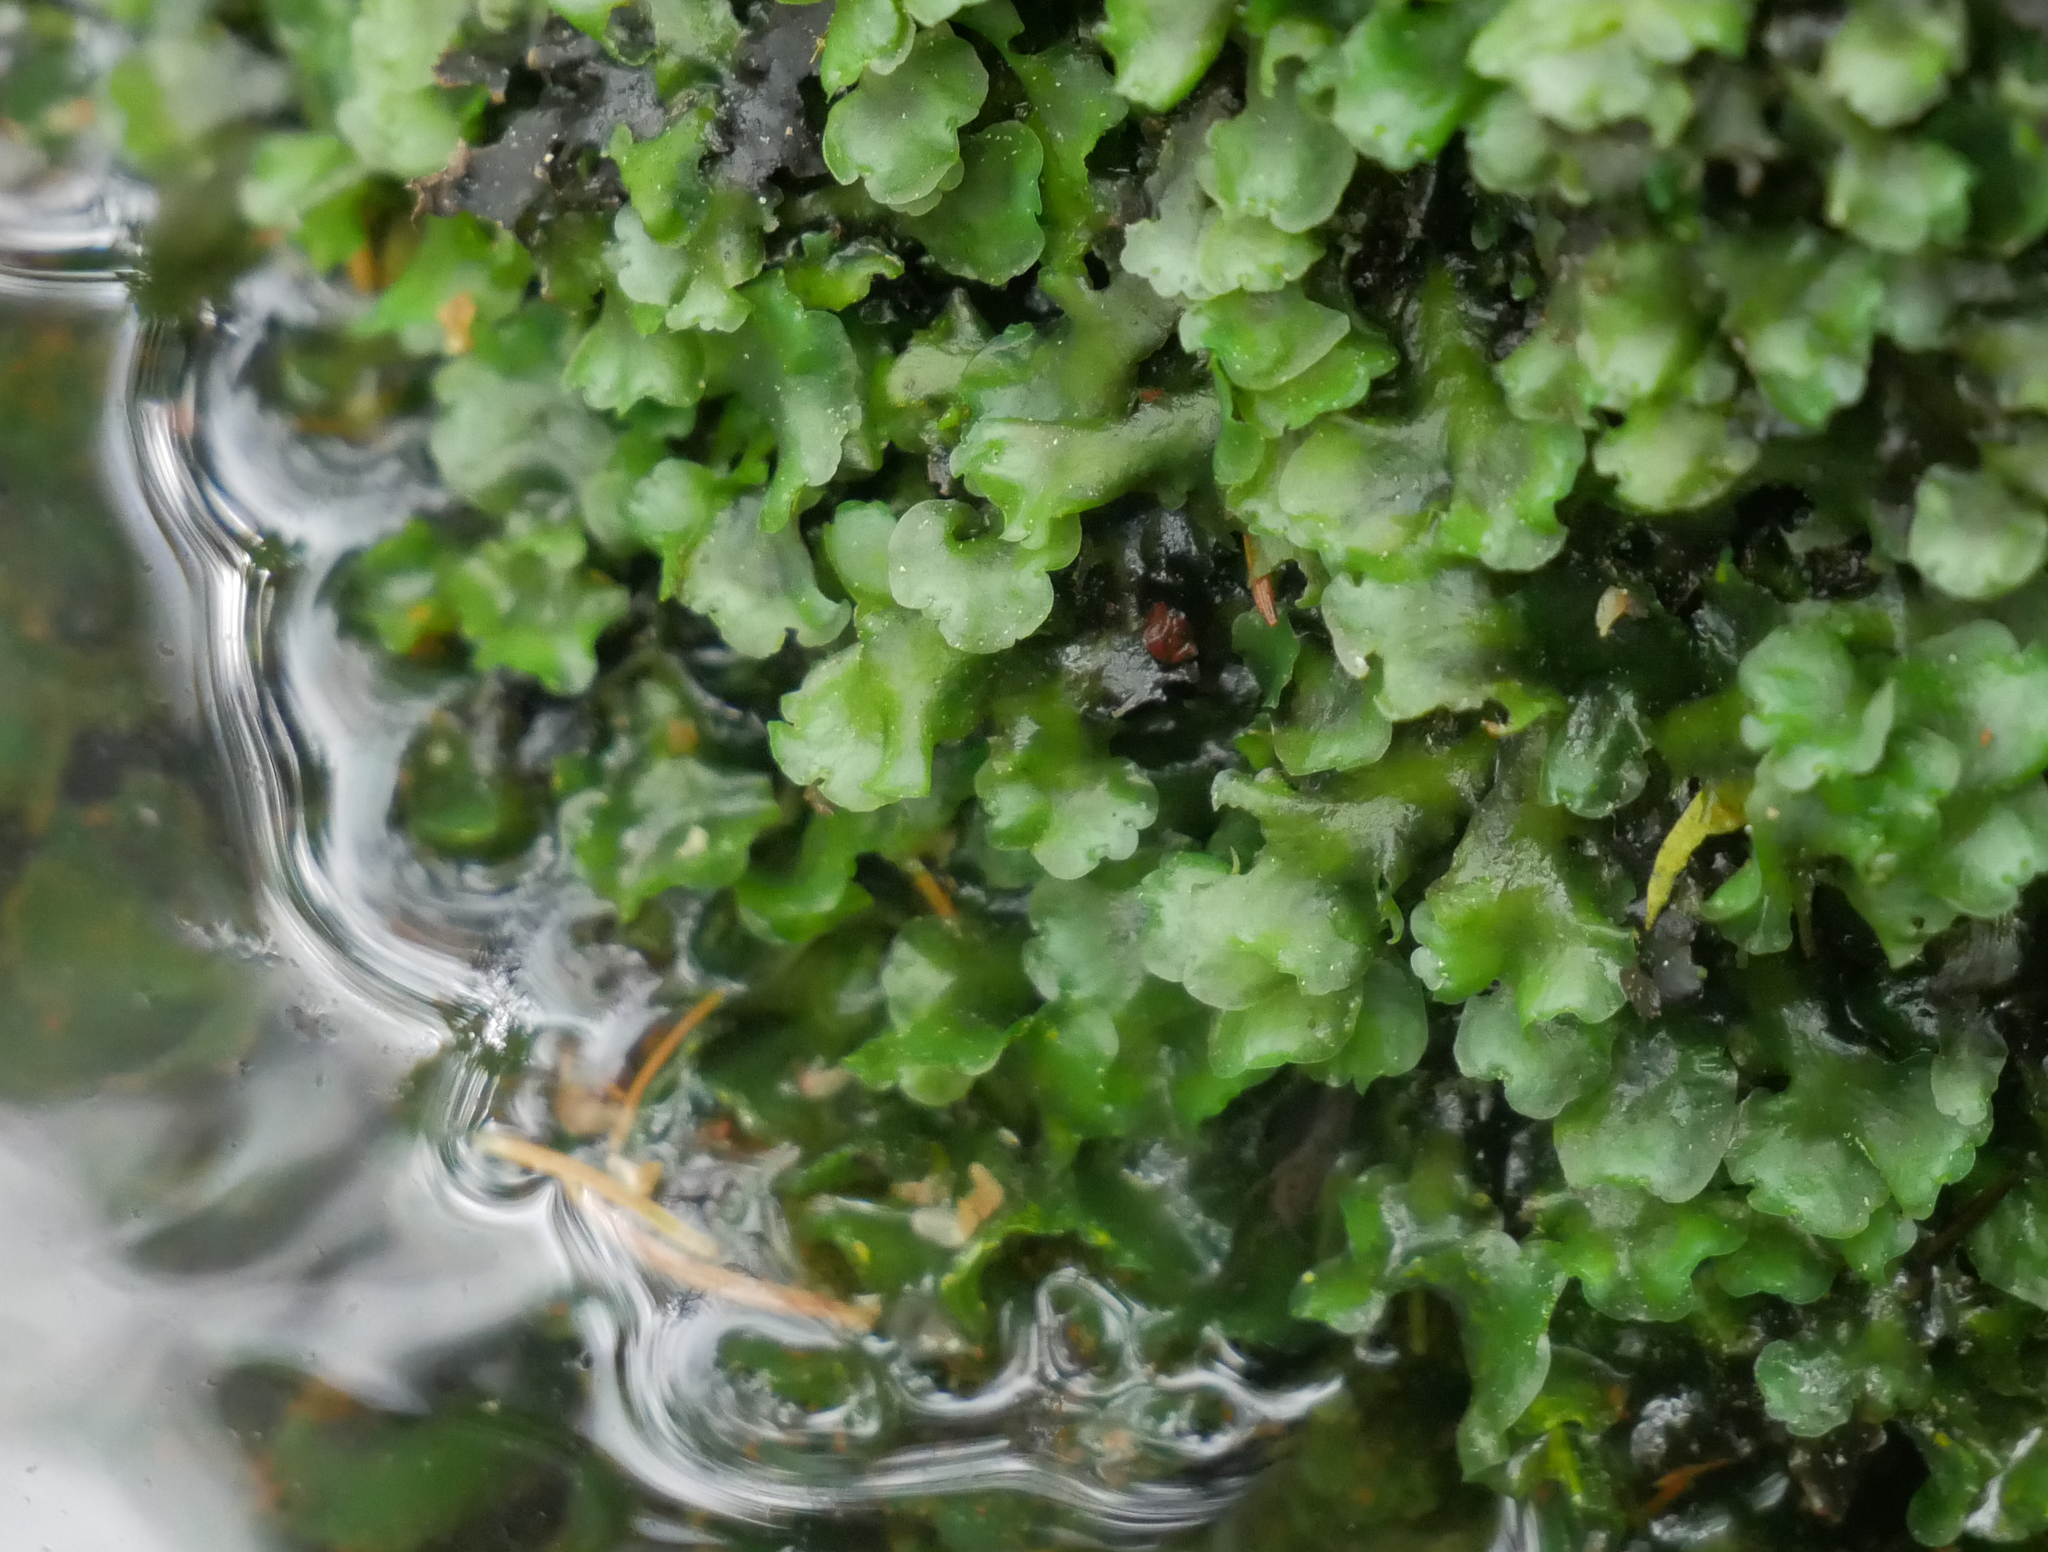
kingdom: Plantae
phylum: Marchantiophyta
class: Jungermanniopsida
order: Pelliales
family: Pelliaceae
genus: Pellia
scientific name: Pellia
